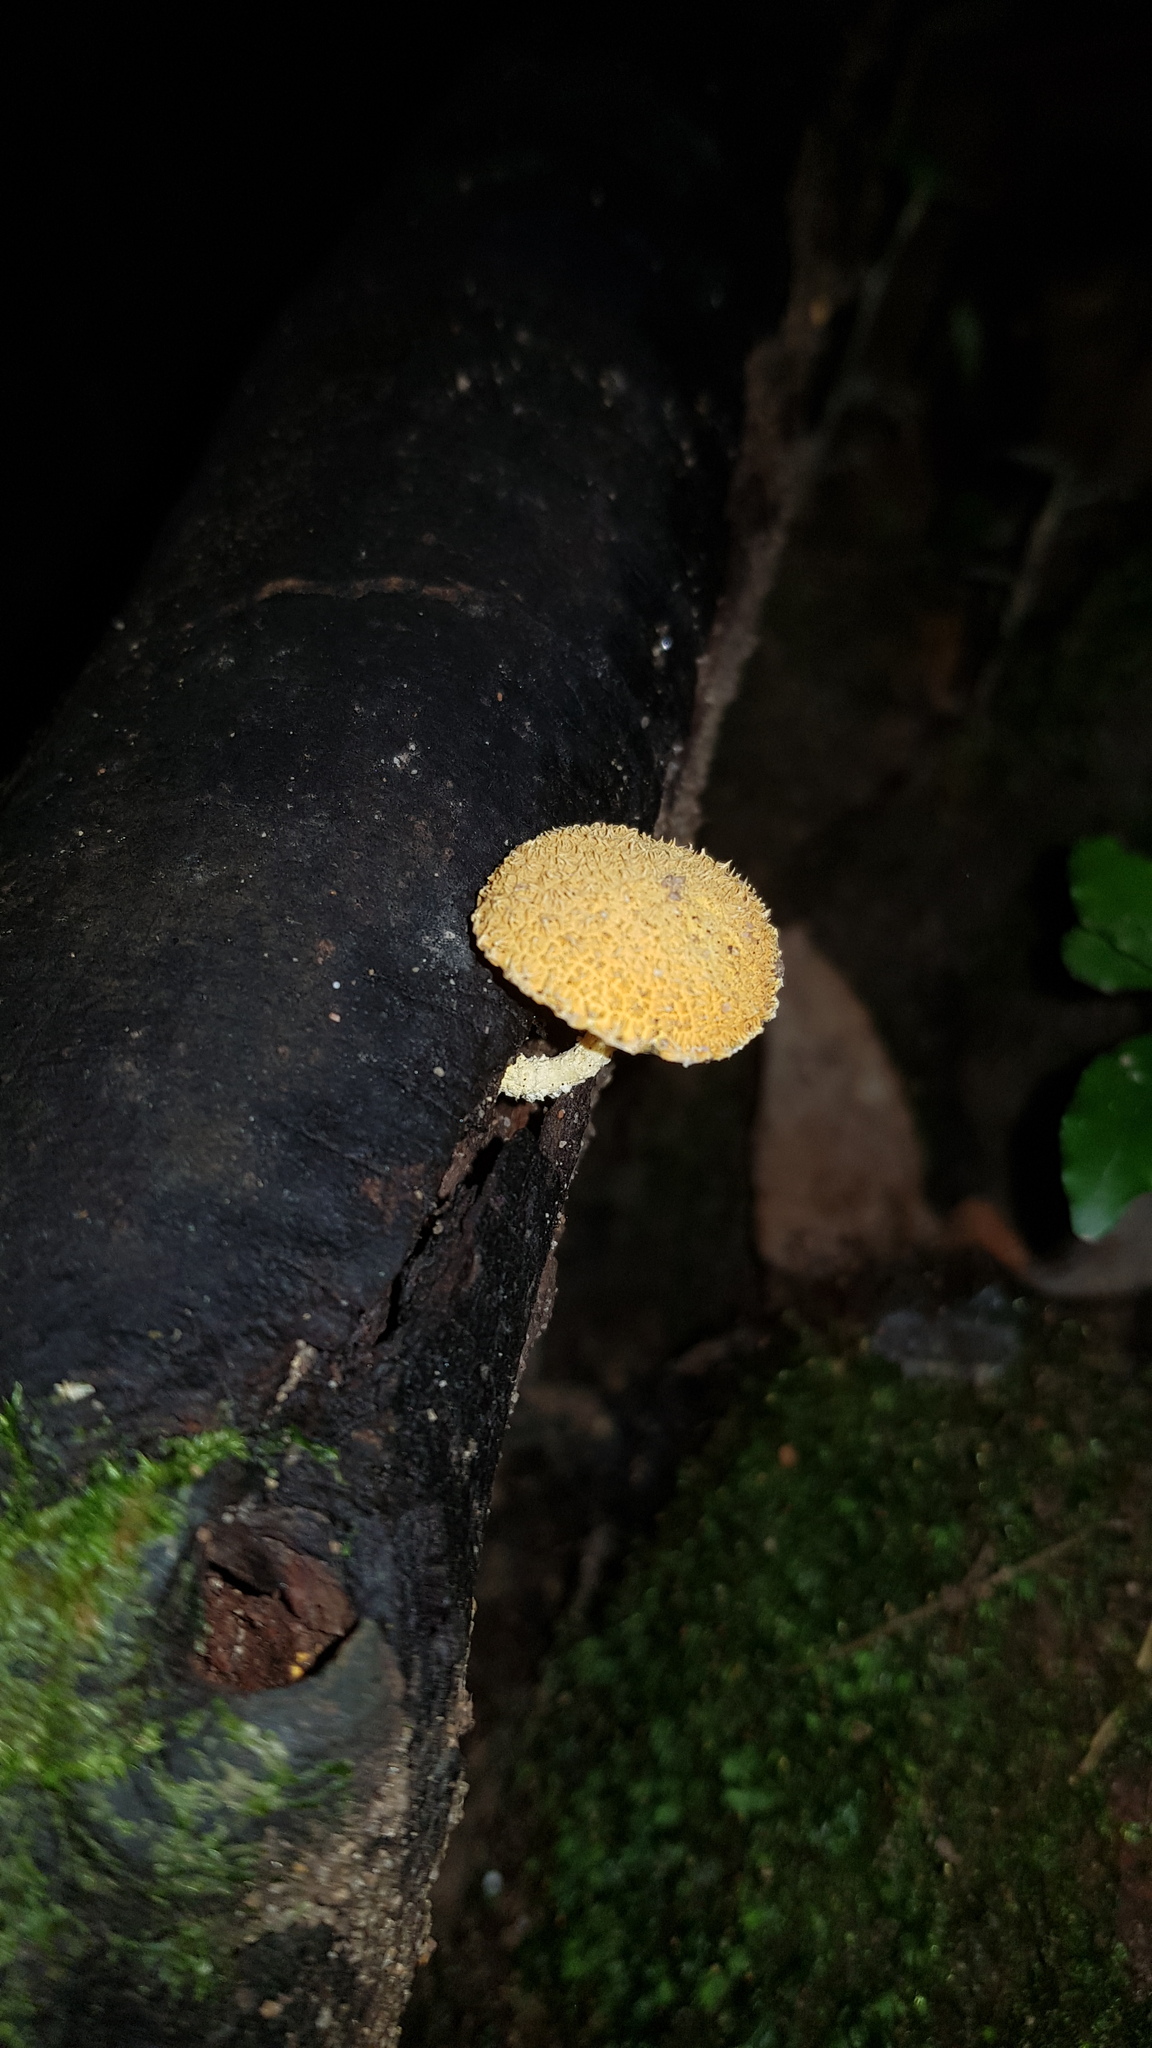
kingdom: Fungi
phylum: Basidiomycota
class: Agaricomycetes
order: Agaricales
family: Physalacriaceae
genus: Cyptotrama
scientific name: Cyptotrama asprata
